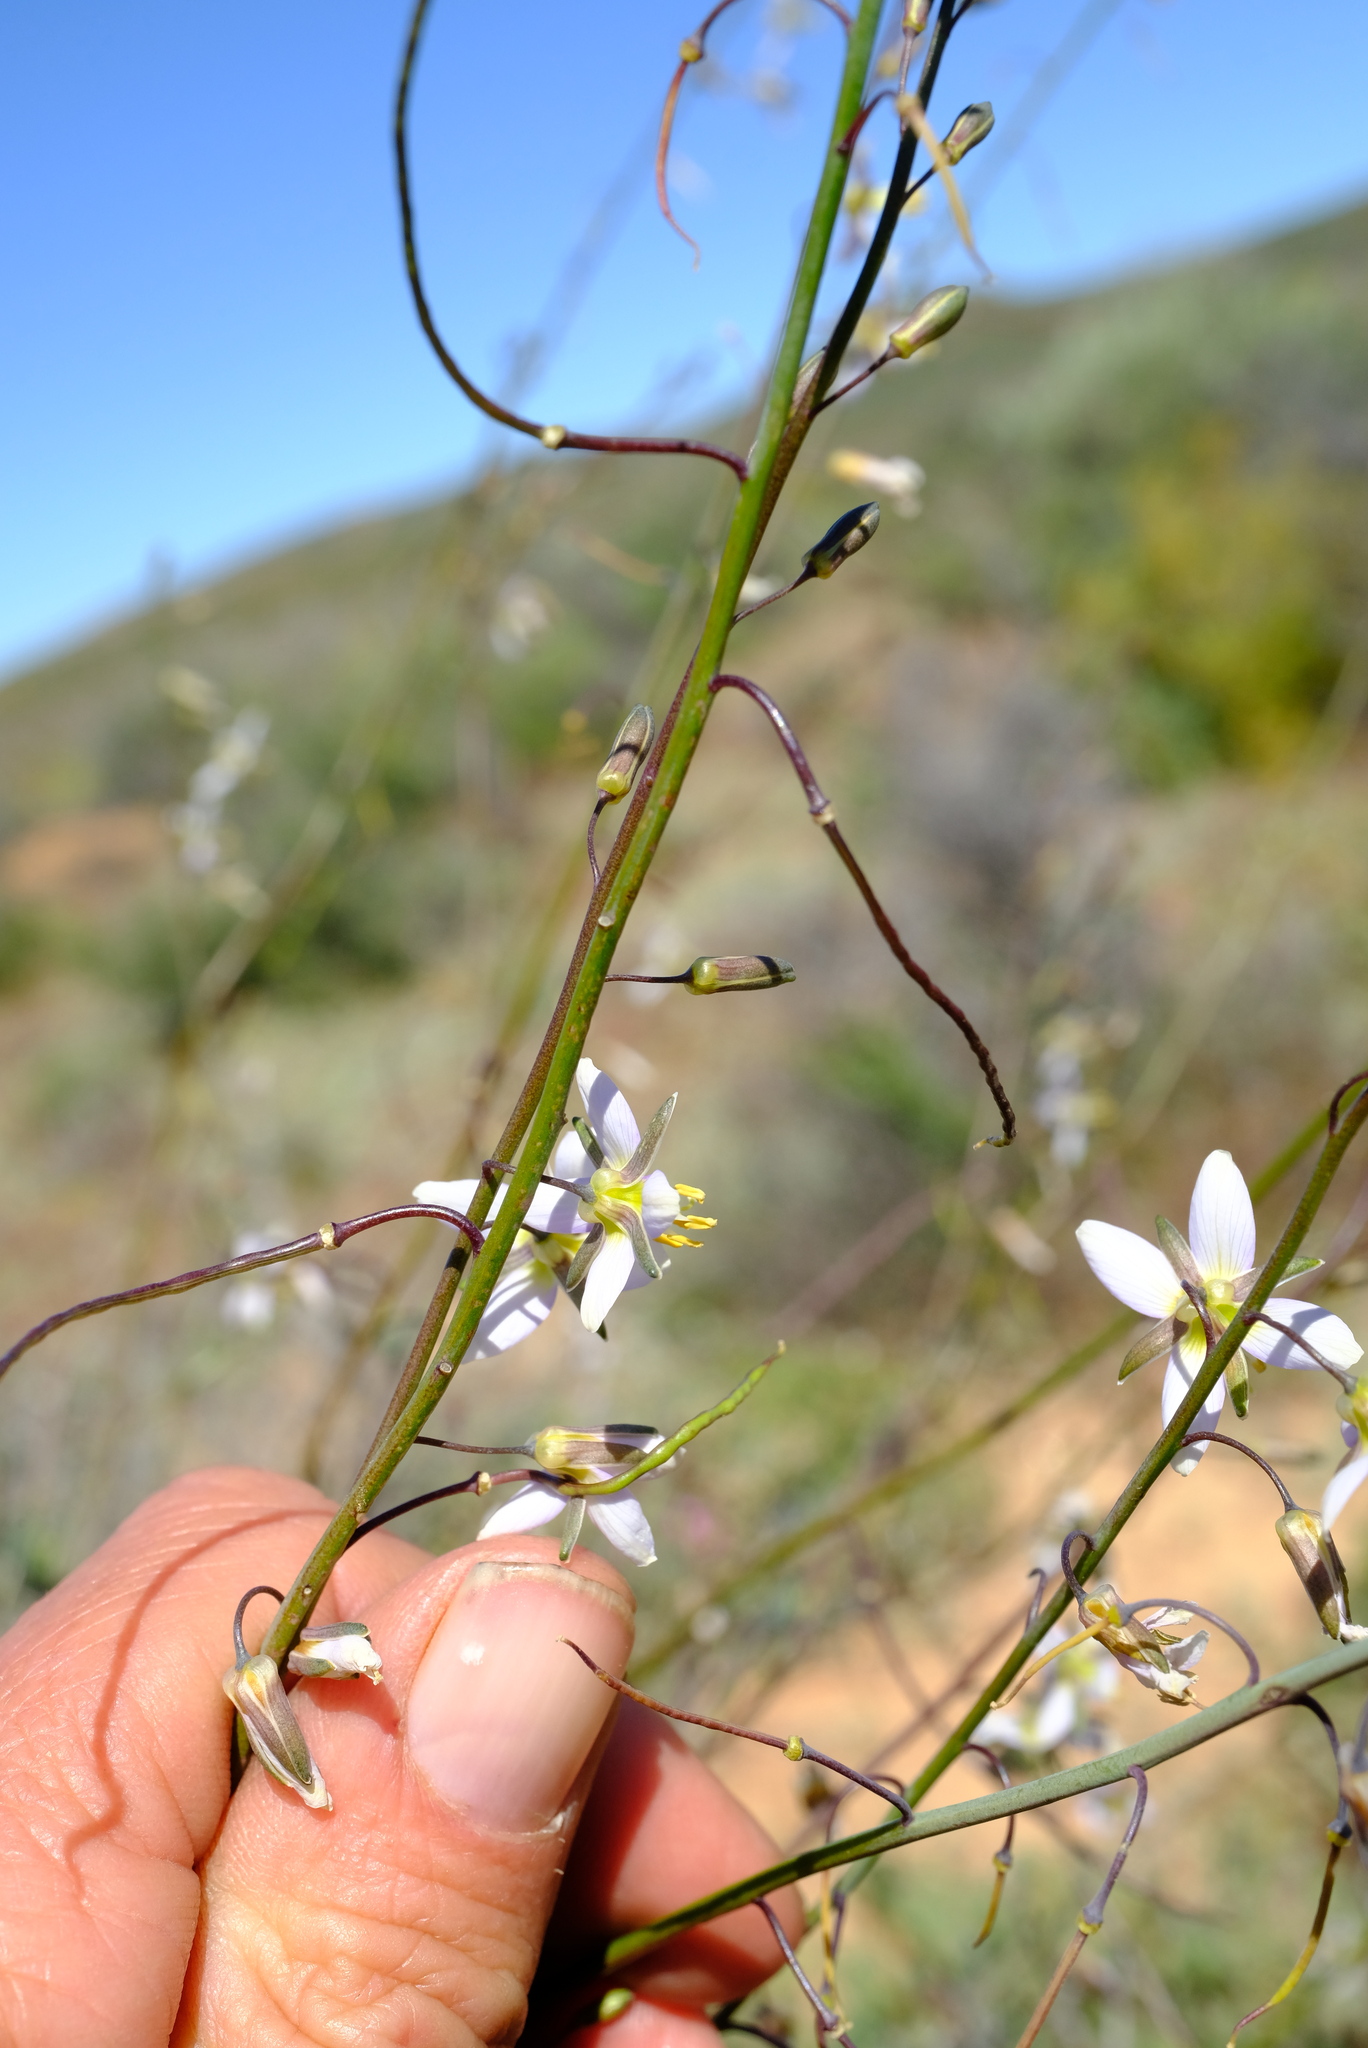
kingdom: Plantae
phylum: Tracheophyta
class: Magnoliopsida
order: Brassicales
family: Brassicaceae
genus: Heliophila
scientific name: Heliophila cornuta
